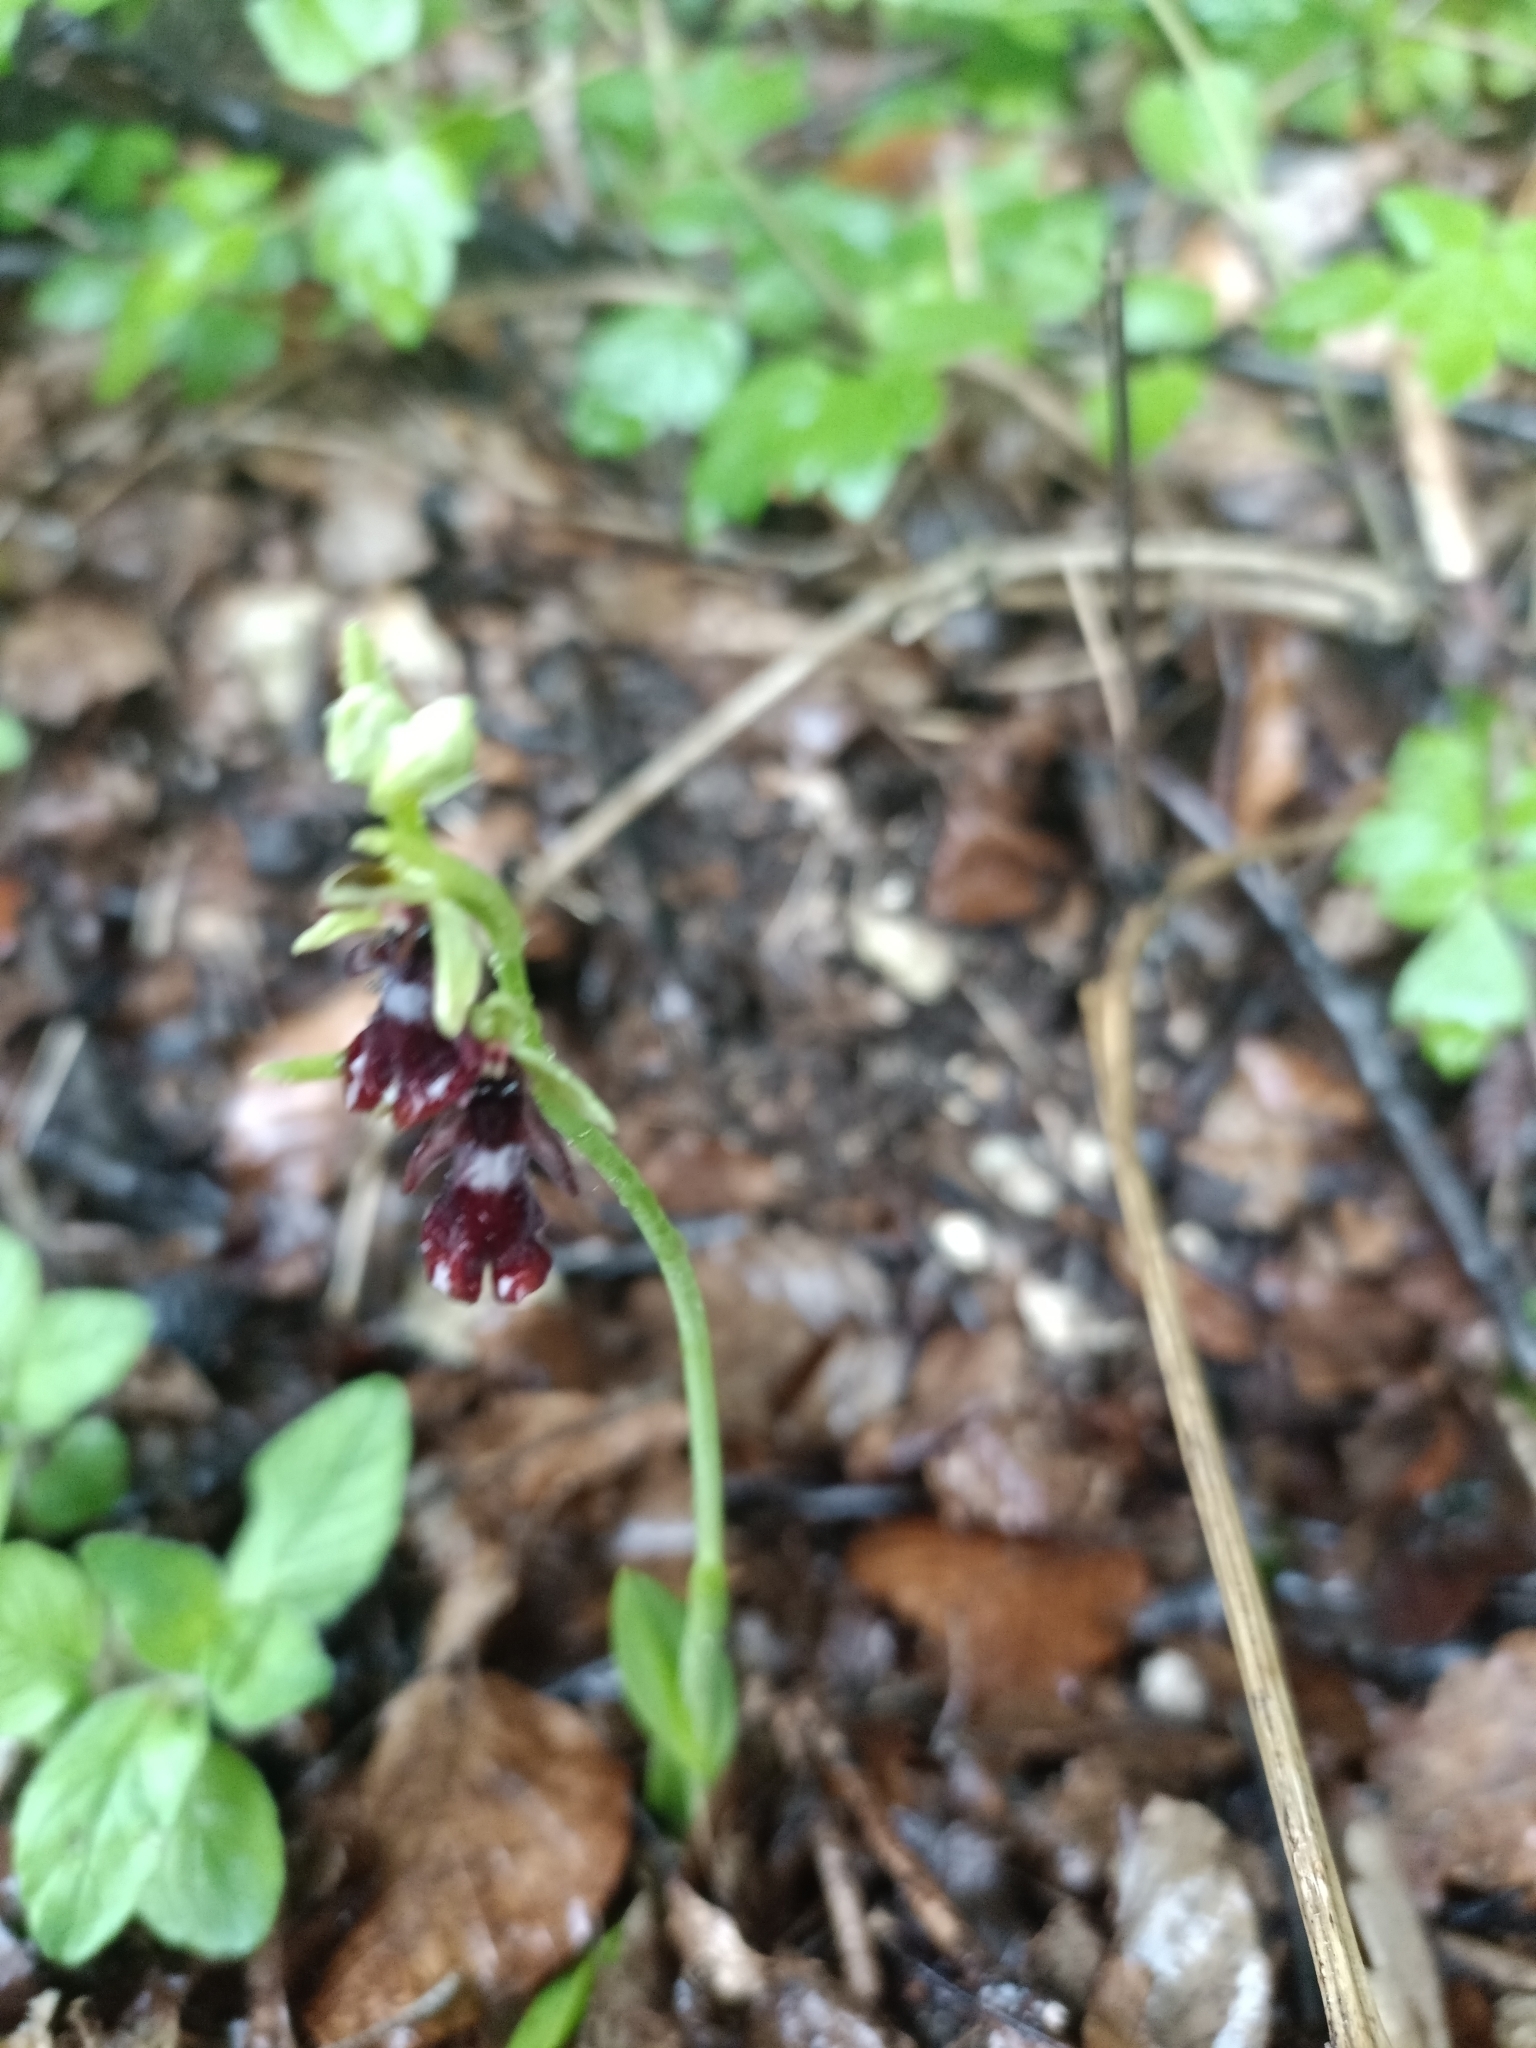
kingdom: Plantae
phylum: Tracheophyta
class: Liliopsida
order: Asparagales
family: Orchidaceae
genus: Ophrys
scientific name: Ophrys insectifera
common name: Fly orchid
